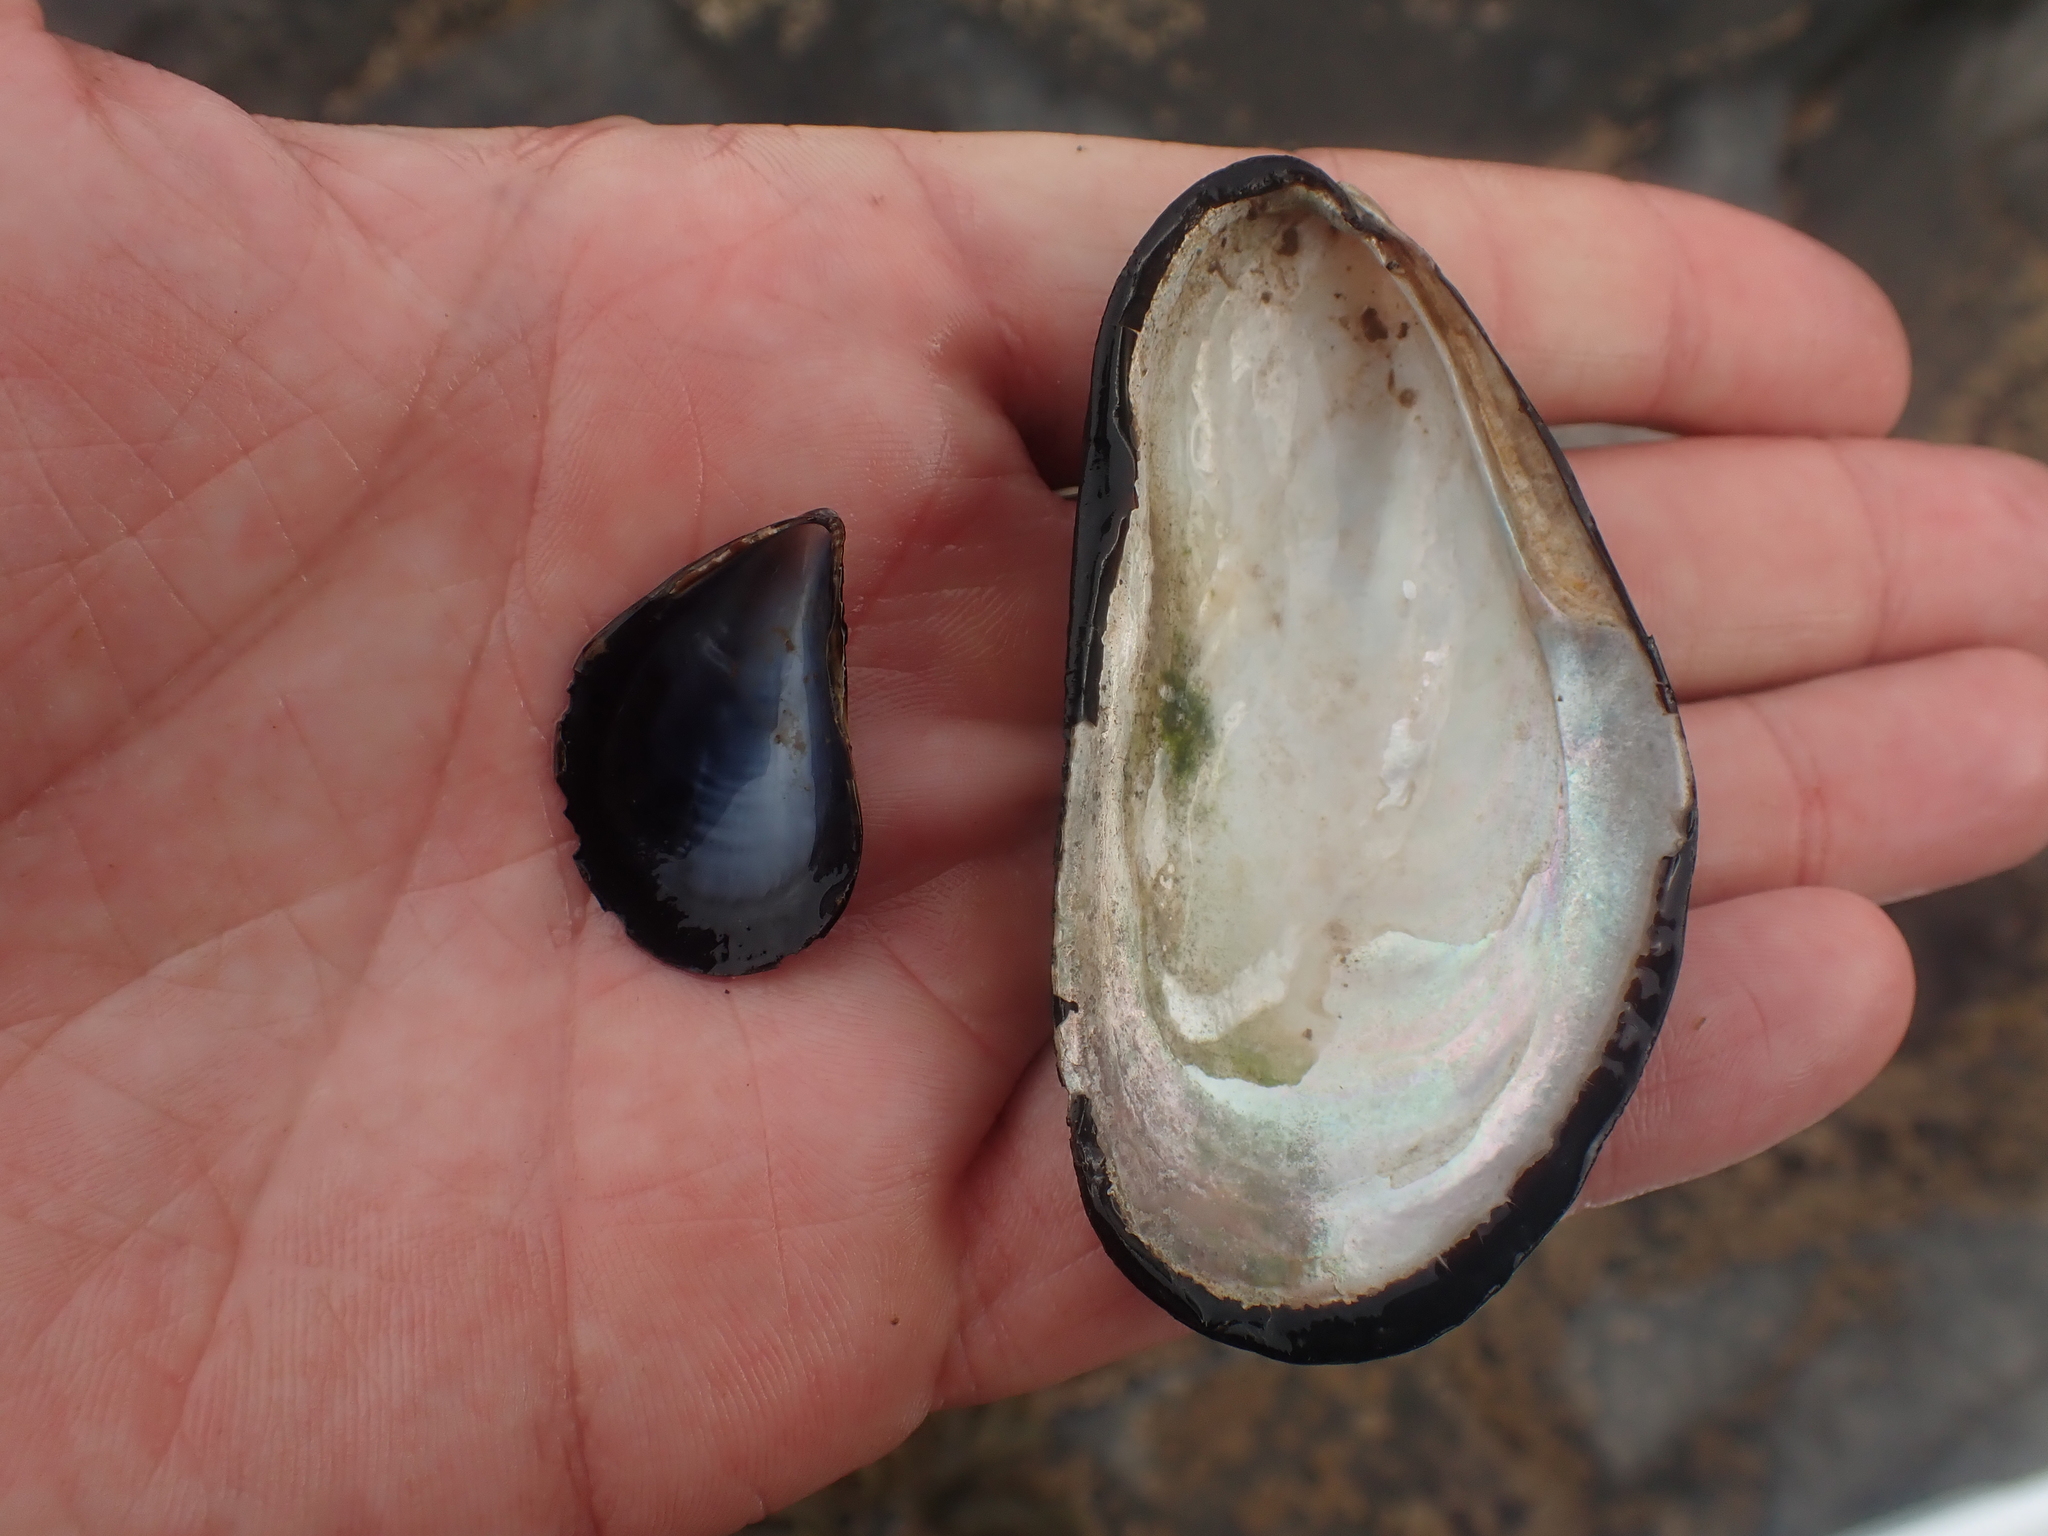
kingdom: Animalia
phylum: Mollusca
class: Bivalvia
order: Mytilida
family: Mytilidae
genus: Modiolus
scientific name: Modiolus modiolus
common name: Horse-mussel
